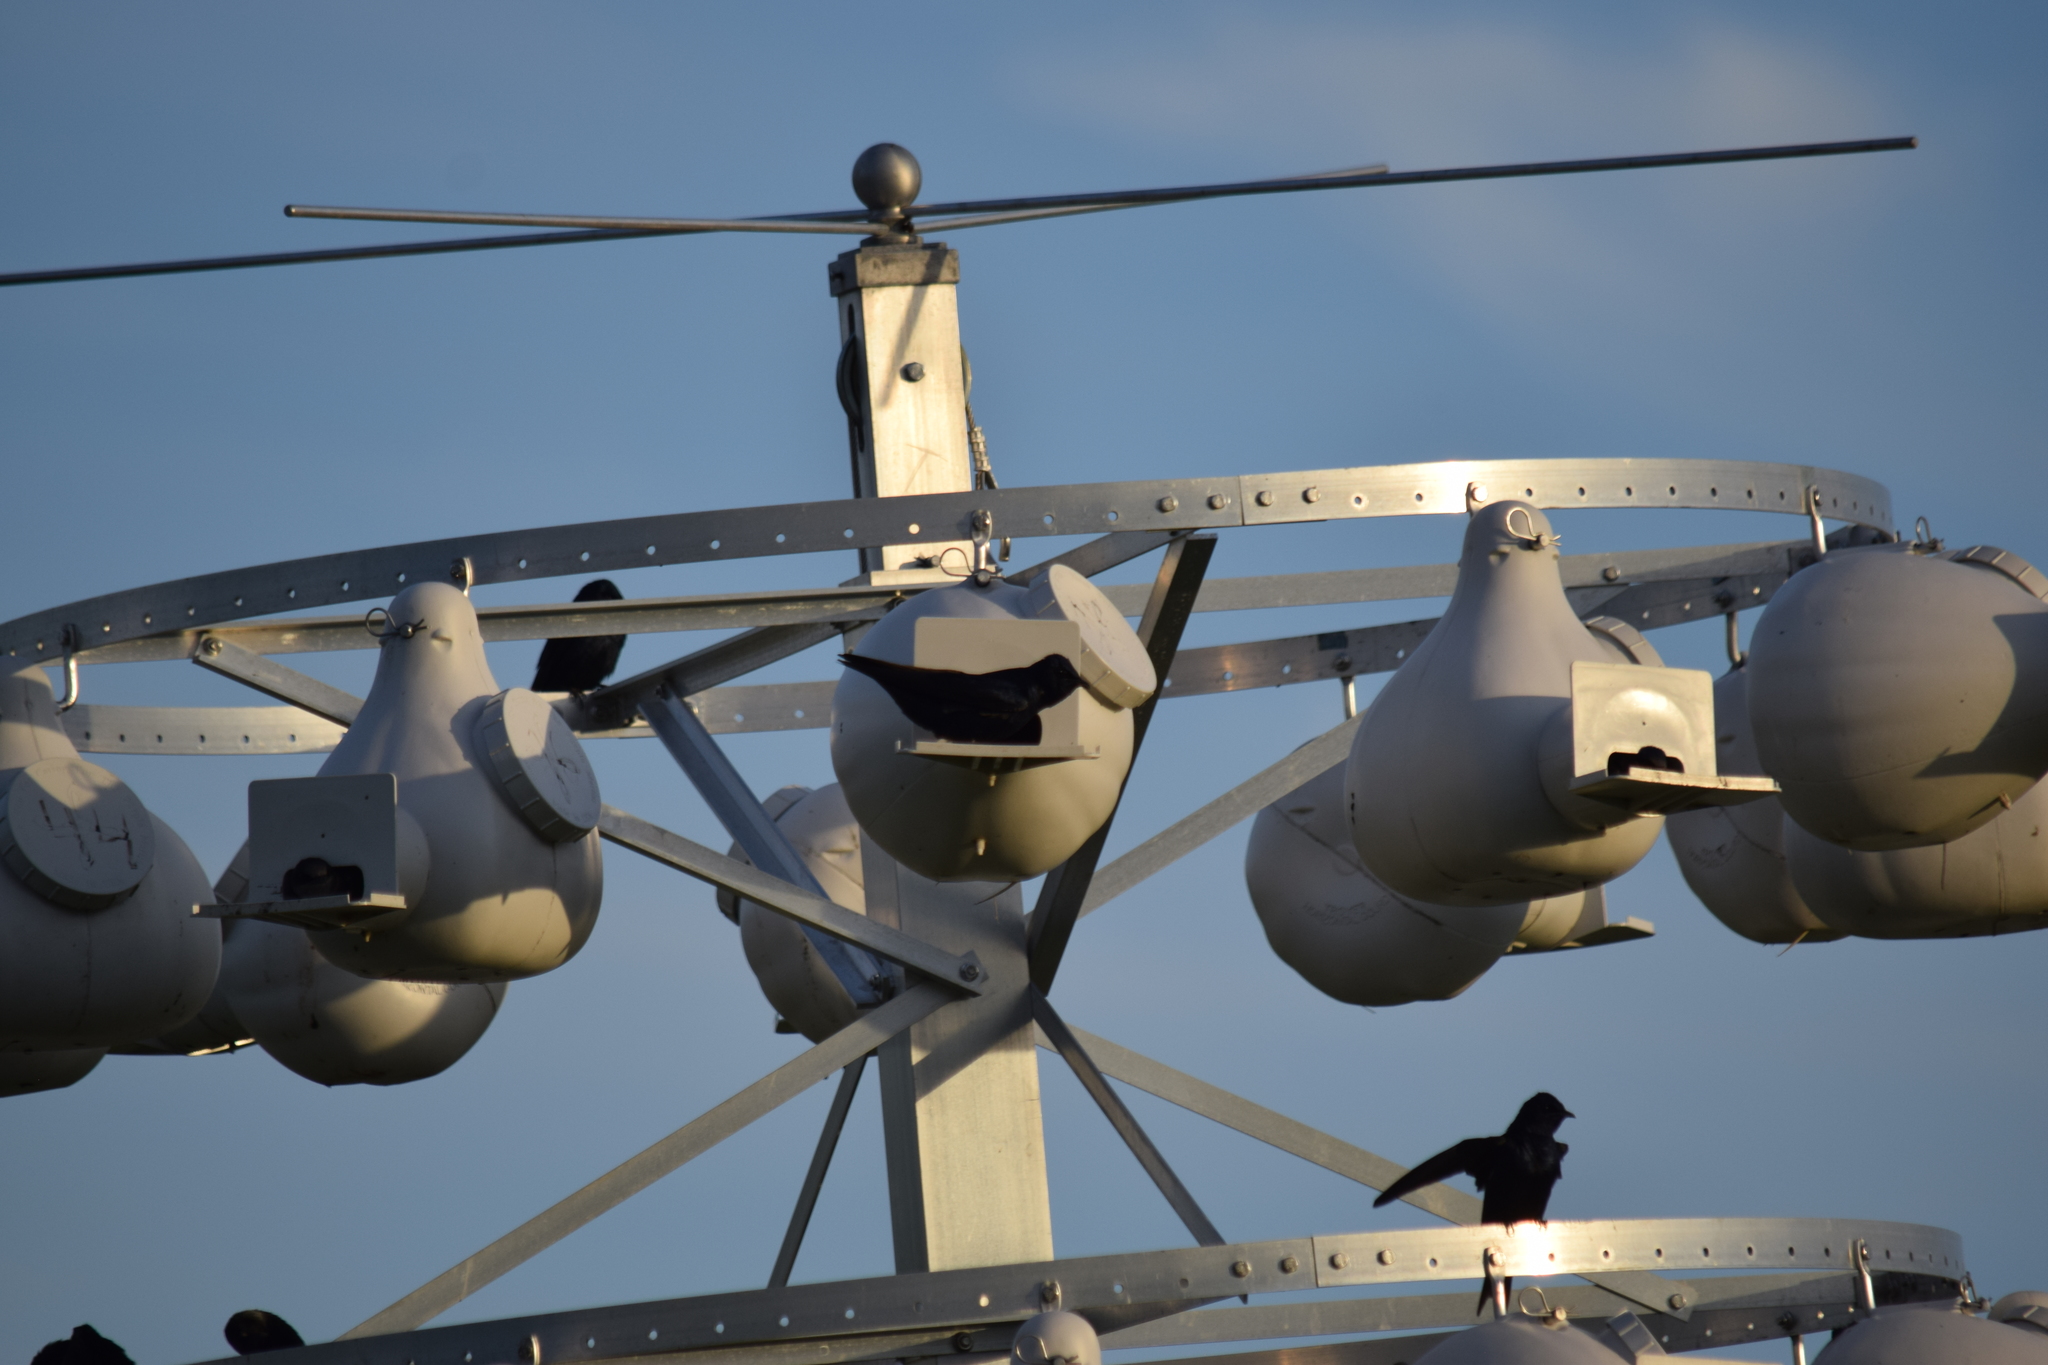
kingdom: Animalia
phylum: Chordata
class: Aves
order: Passeriformes
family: Hirundinidae
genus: Progne
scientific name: Progne subis
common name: Purple martin
